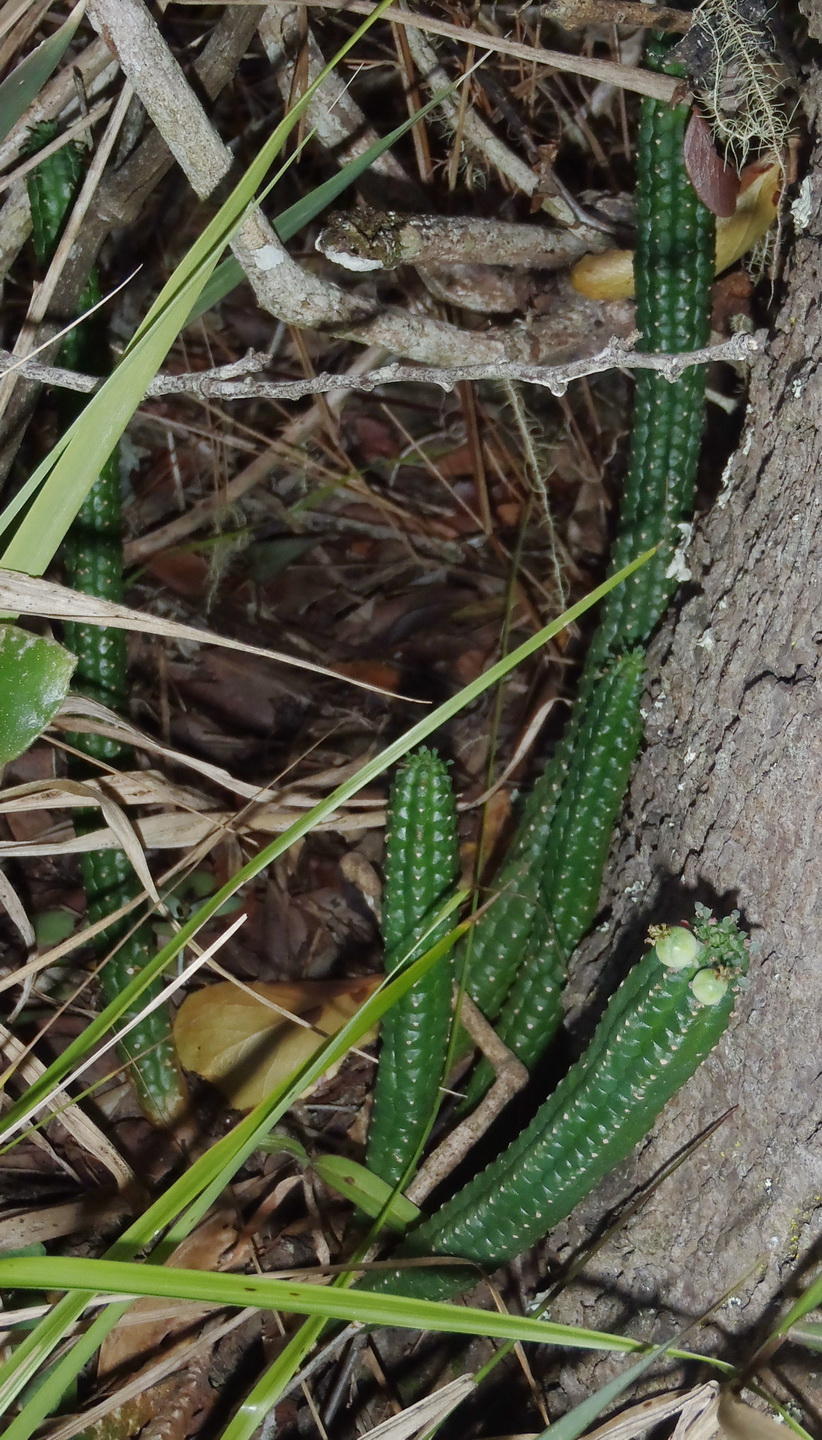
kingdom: Plantae
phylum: Tracheophyta
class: Magnoliopsida
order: Malpighiales
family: Euphorbiaceae
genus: Euphorbia
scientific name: Euphorbia mammillaris
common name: Corkscrew
